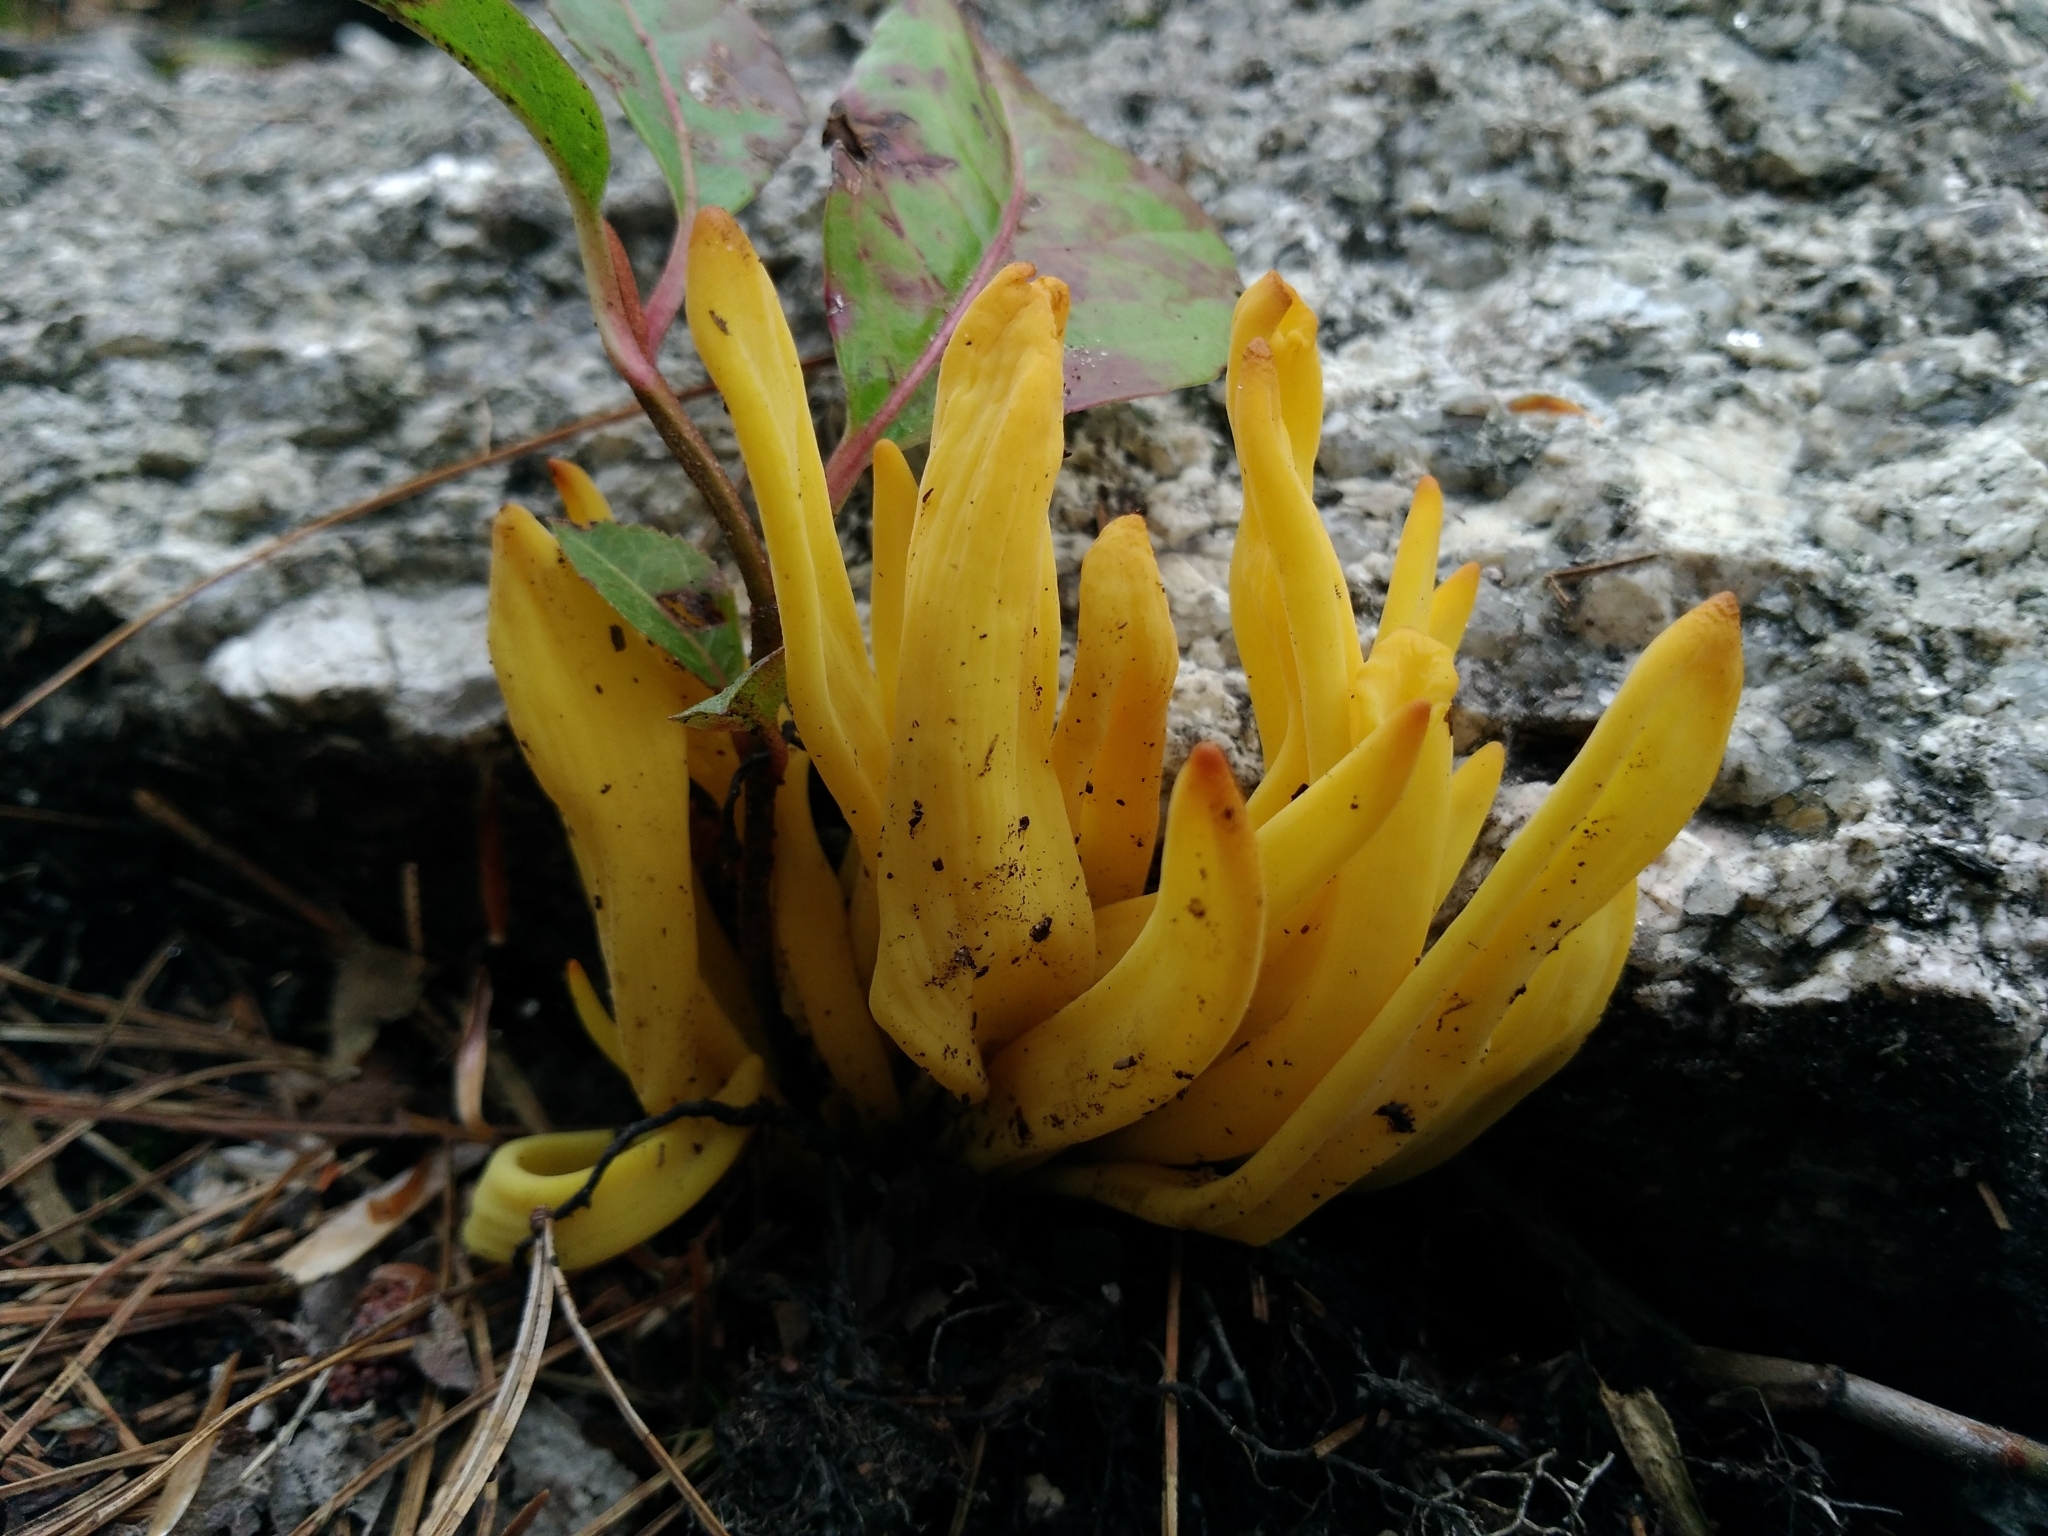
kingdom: Fungi
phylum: Basidiomycota
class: Agaricomycetes
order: Agaricales
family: Clavariaceae
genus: Clavulinopsis
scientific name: Clavulinopsis fusiformis
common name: Golden spindles
